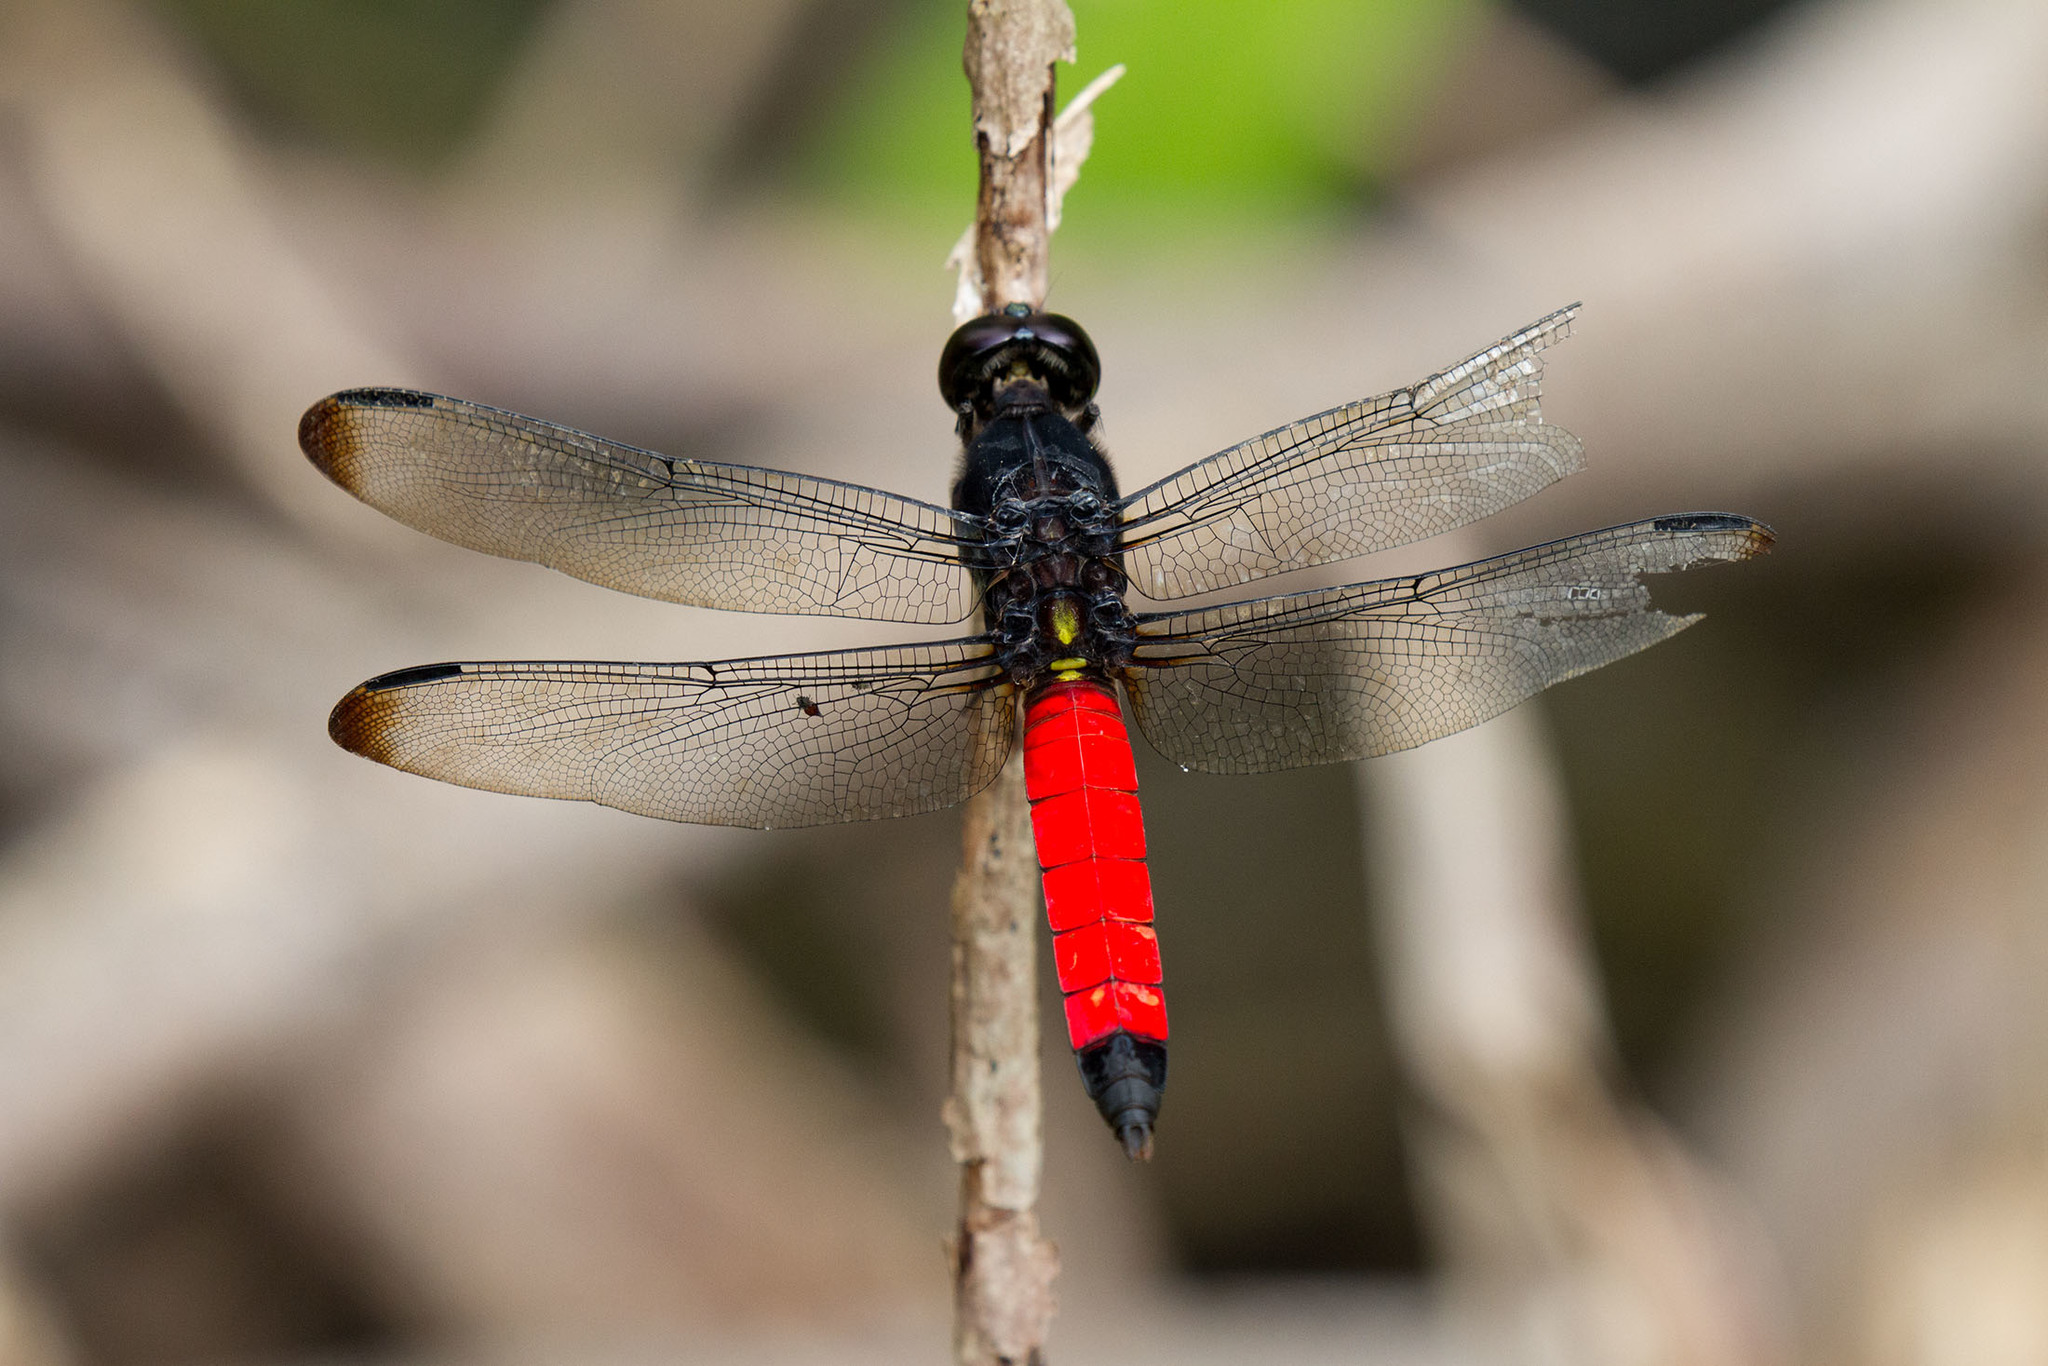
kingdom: Animalia
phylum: Arthropoda
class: Insecta
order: Odonata
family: Libellulidae
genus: Protorthemis
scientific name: Protorthemis coronata
